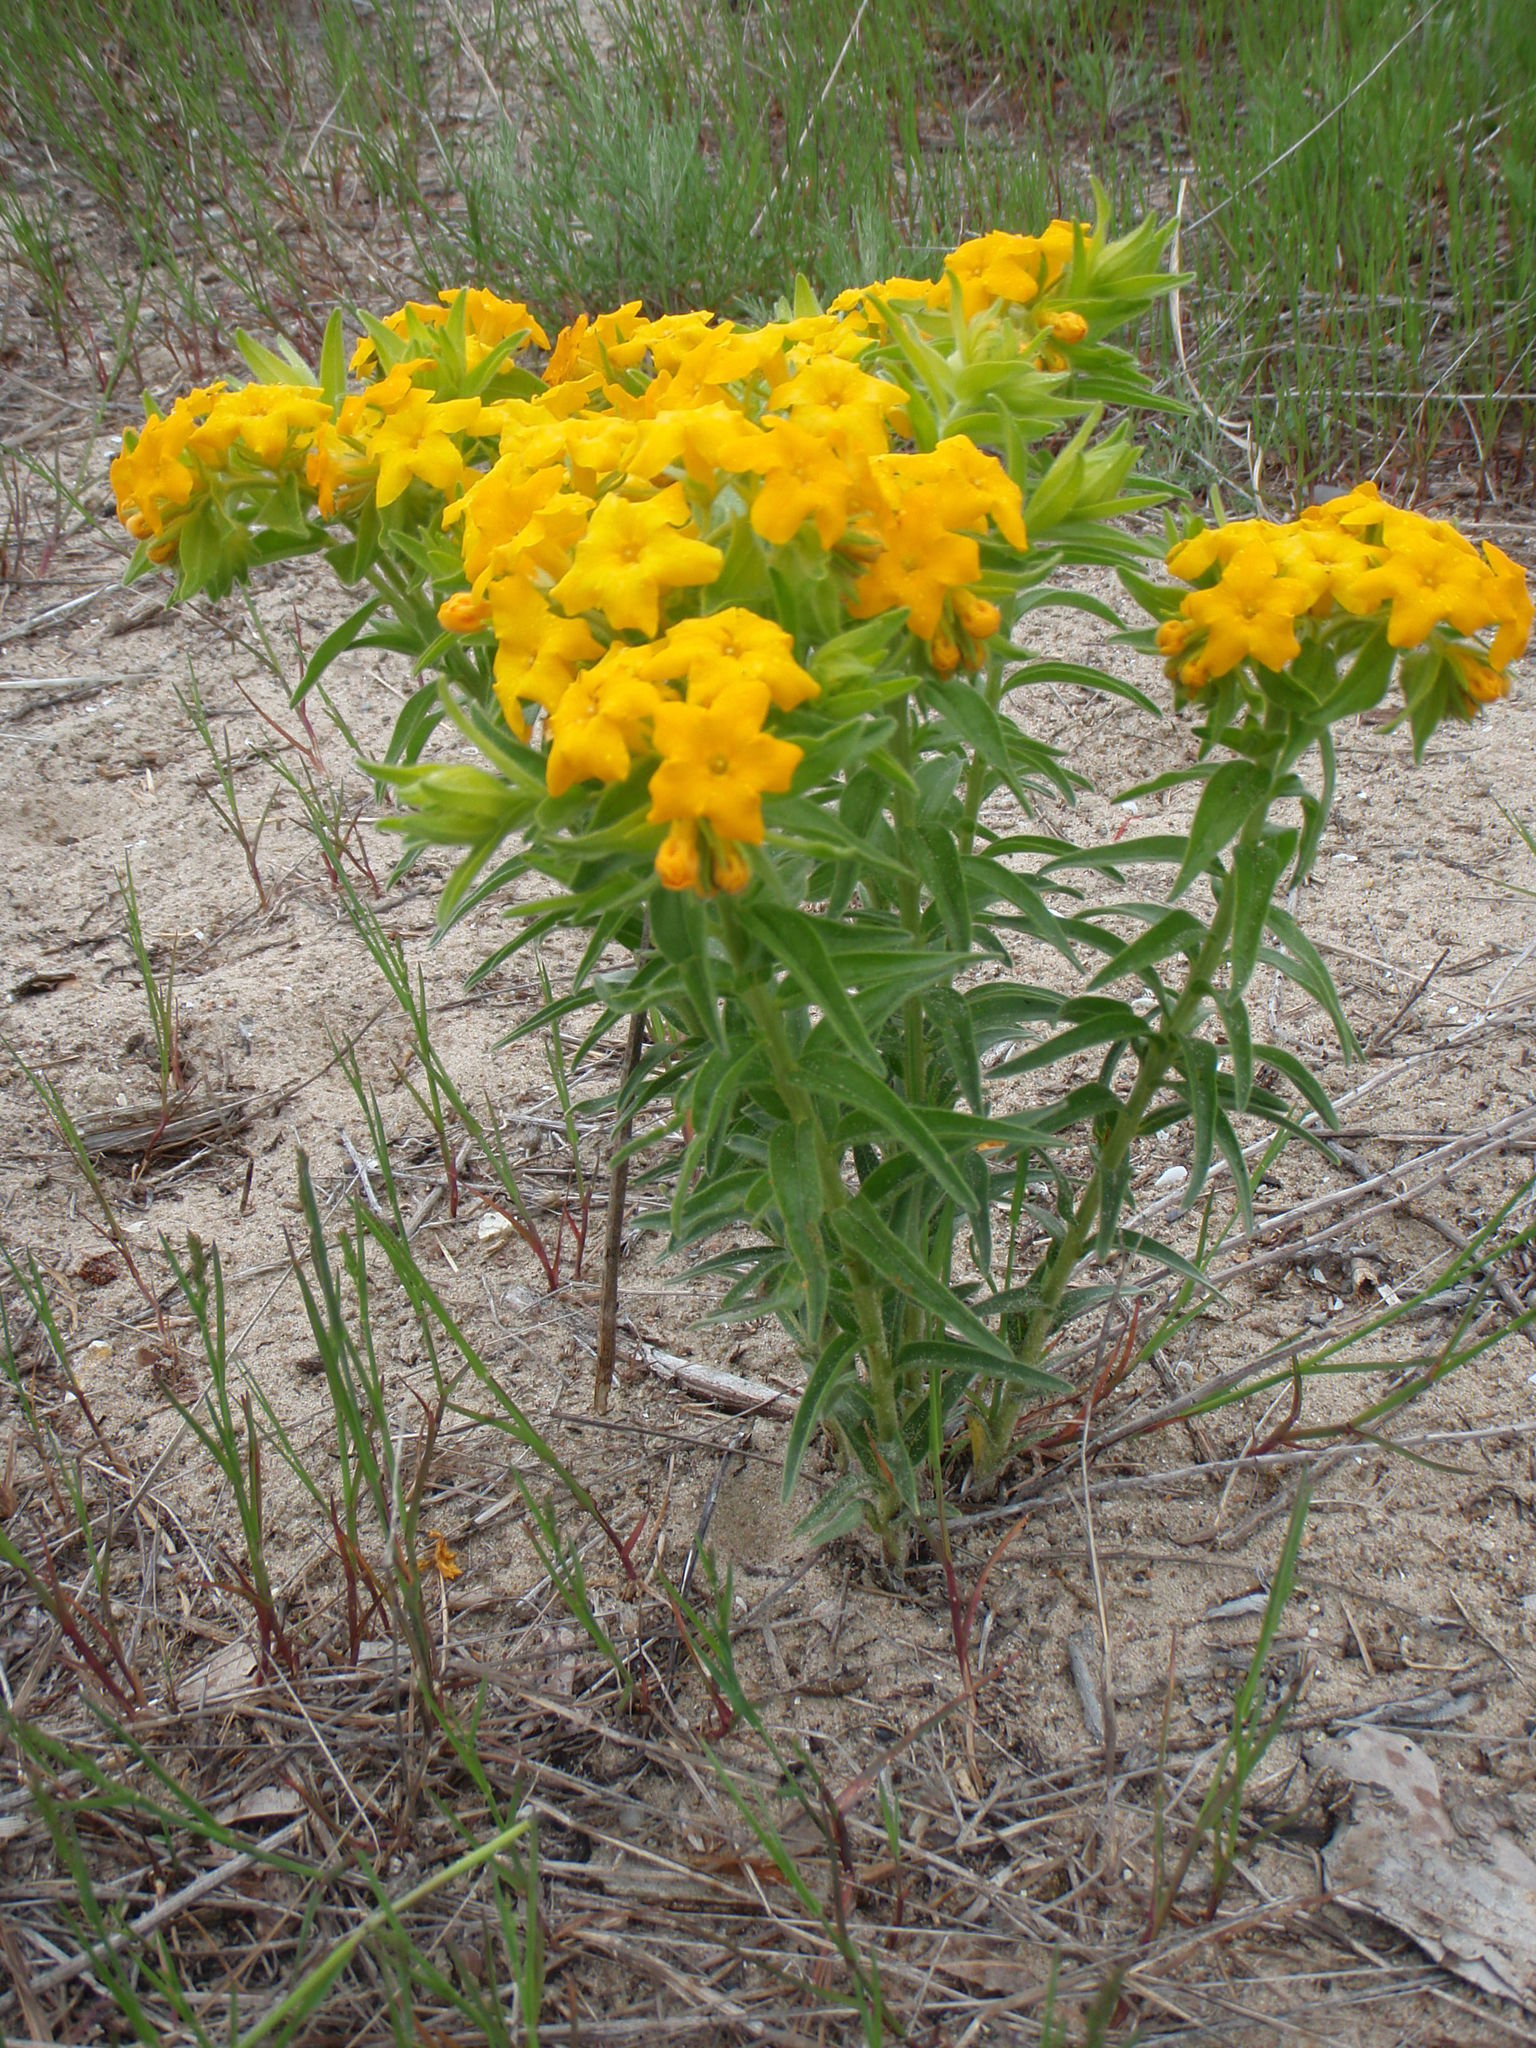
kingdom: Plantae
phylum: Tracheophyta
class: Magnoliopsida
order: Boraginales
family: Boraginaceae
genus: Lithospermum
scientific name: Lithospermum caroliniense
